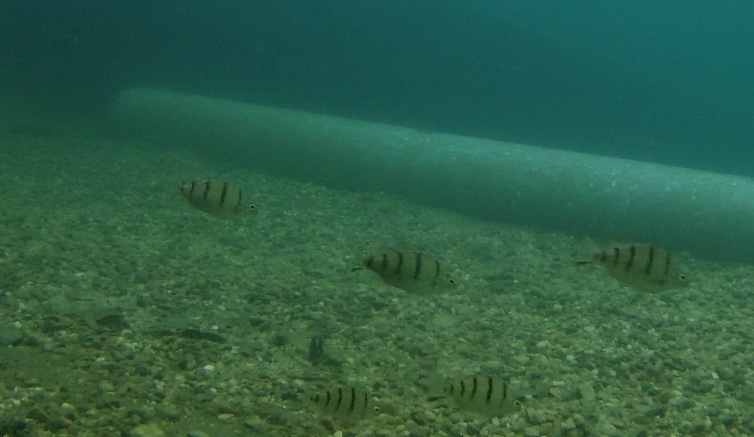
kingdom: Animalia
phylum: Chordata
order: Perciformes
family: Terapontidae
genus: Amniataba
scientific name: Amniataba percoides
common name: Banded grunter
